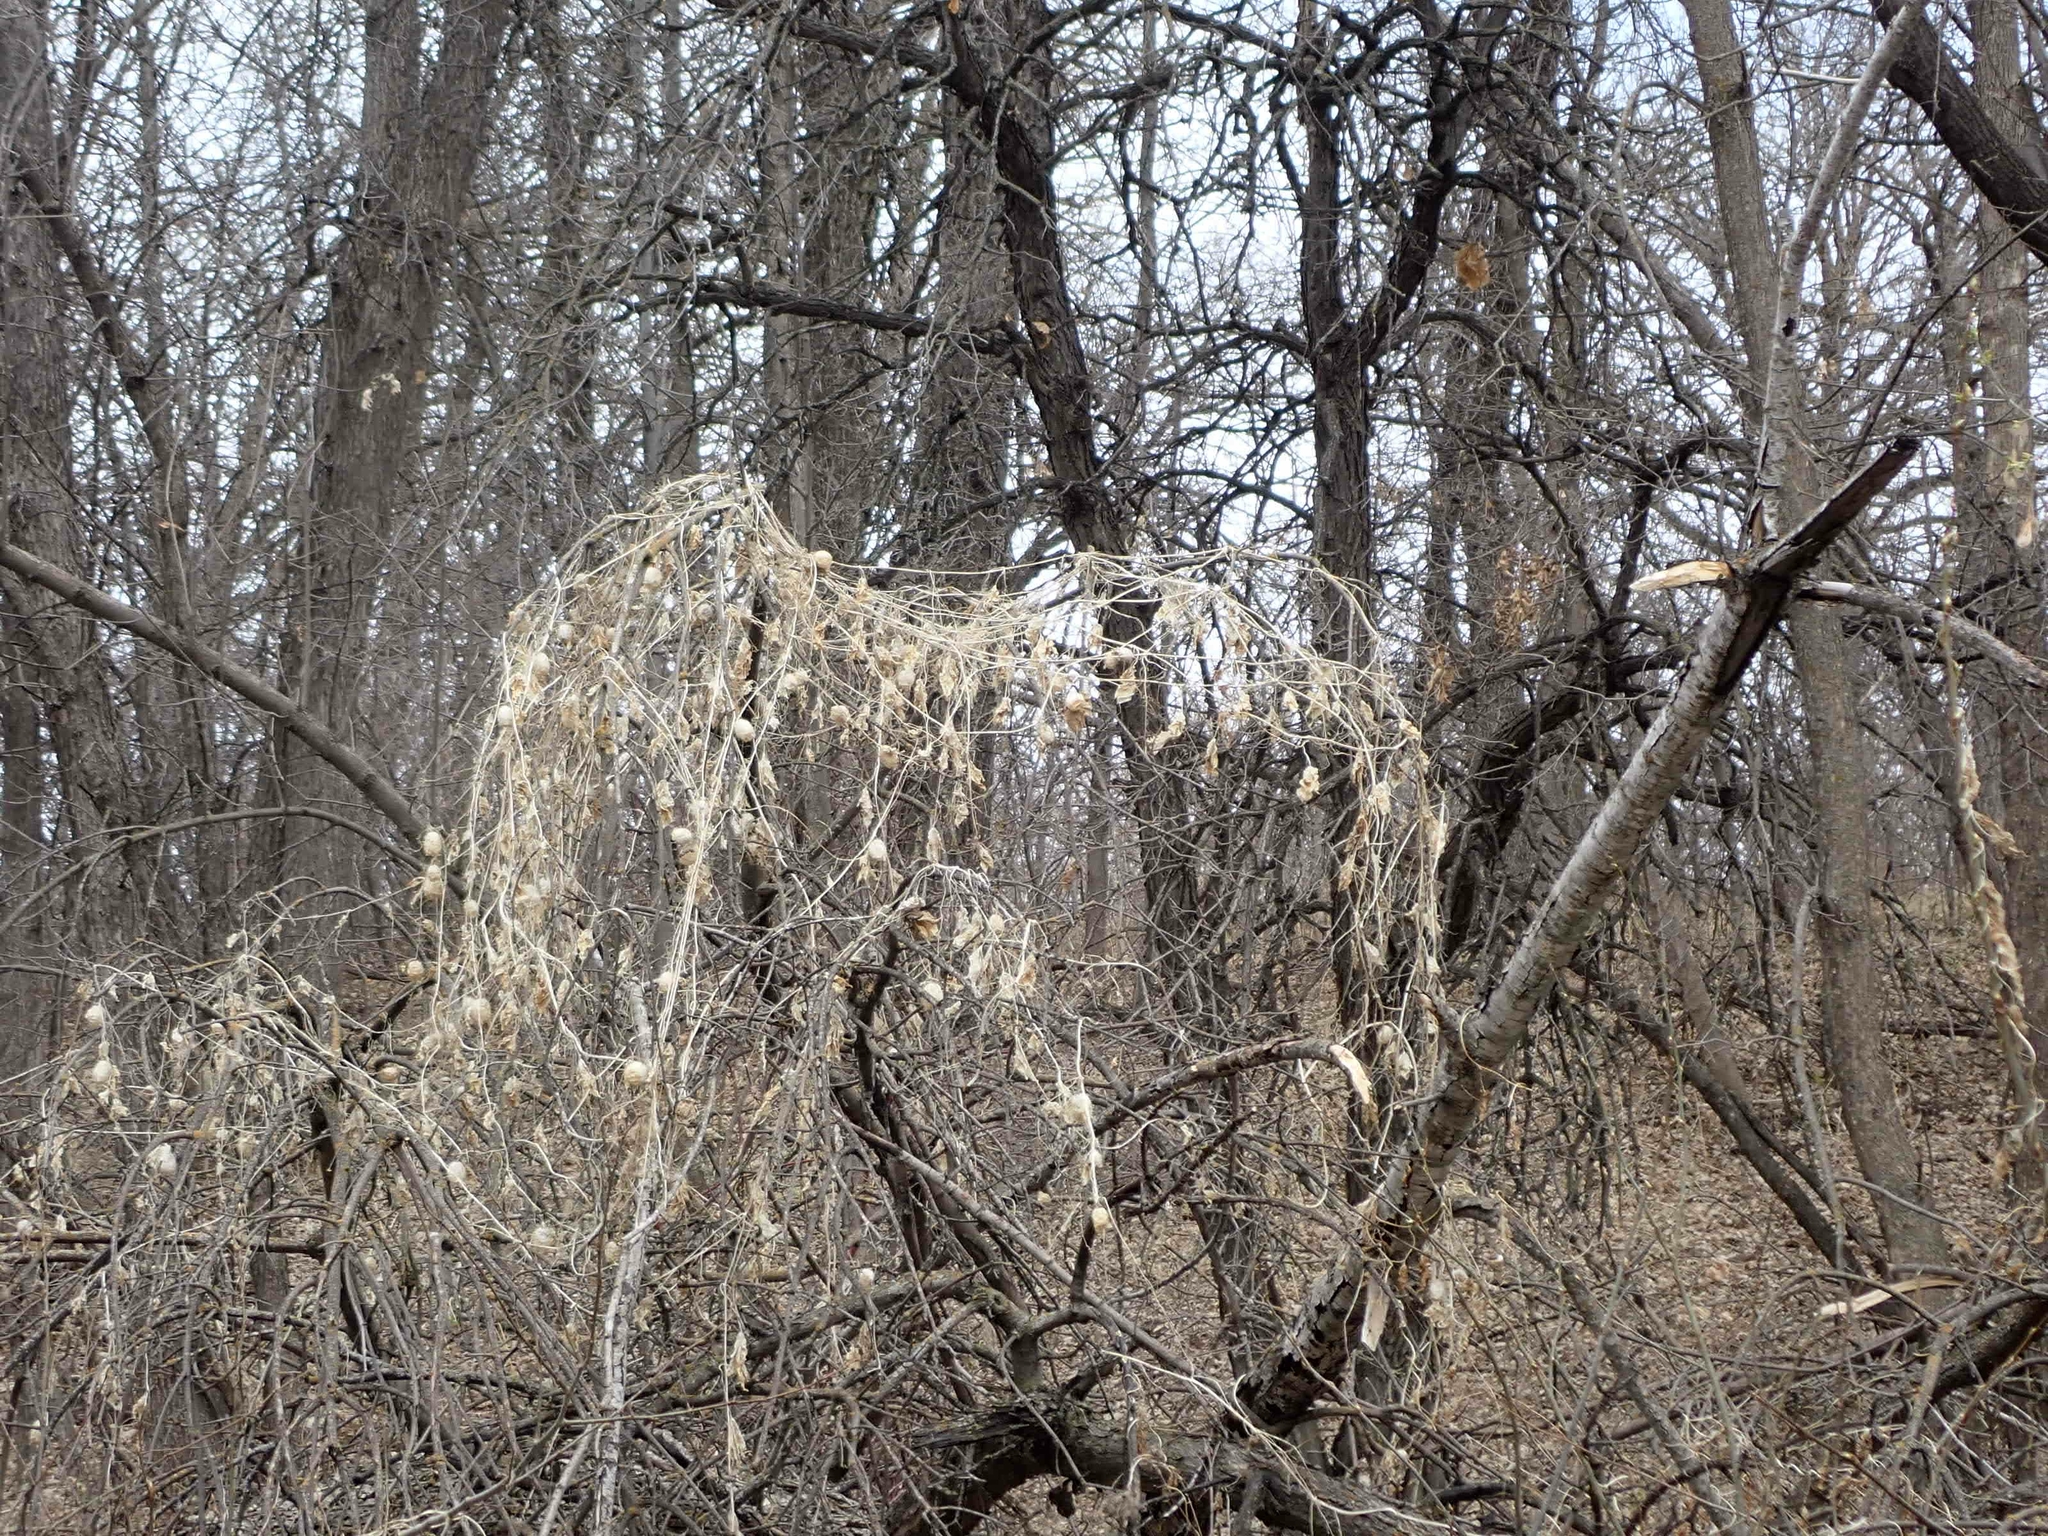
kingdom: Plantae
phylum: Tracheophyta
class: Magnoliopsida
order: Cucurbitales
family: Cucurbitaceae
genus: Echinocystis
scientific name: Echinocystis lobata
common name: Wild cucumber
